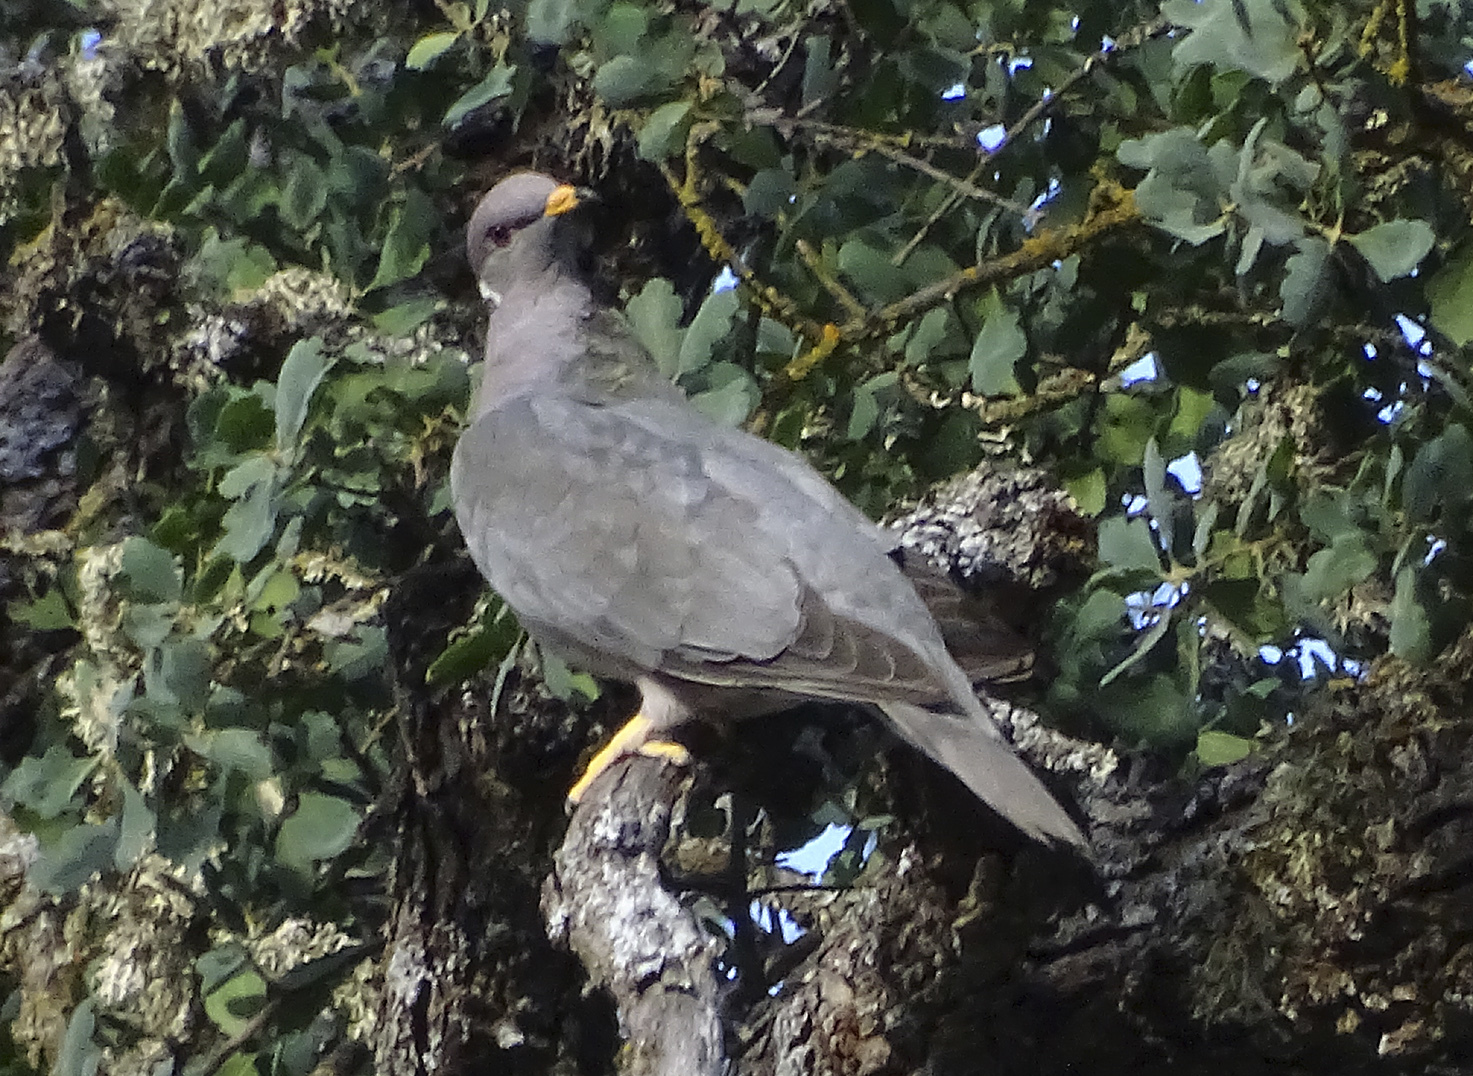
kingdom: Animalia
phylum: Chordata
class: Aves
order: Columbiformes
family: Columbidae
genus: Patagioenas
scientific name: Patagioenas fasciata
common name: Band-tailed pigeon
